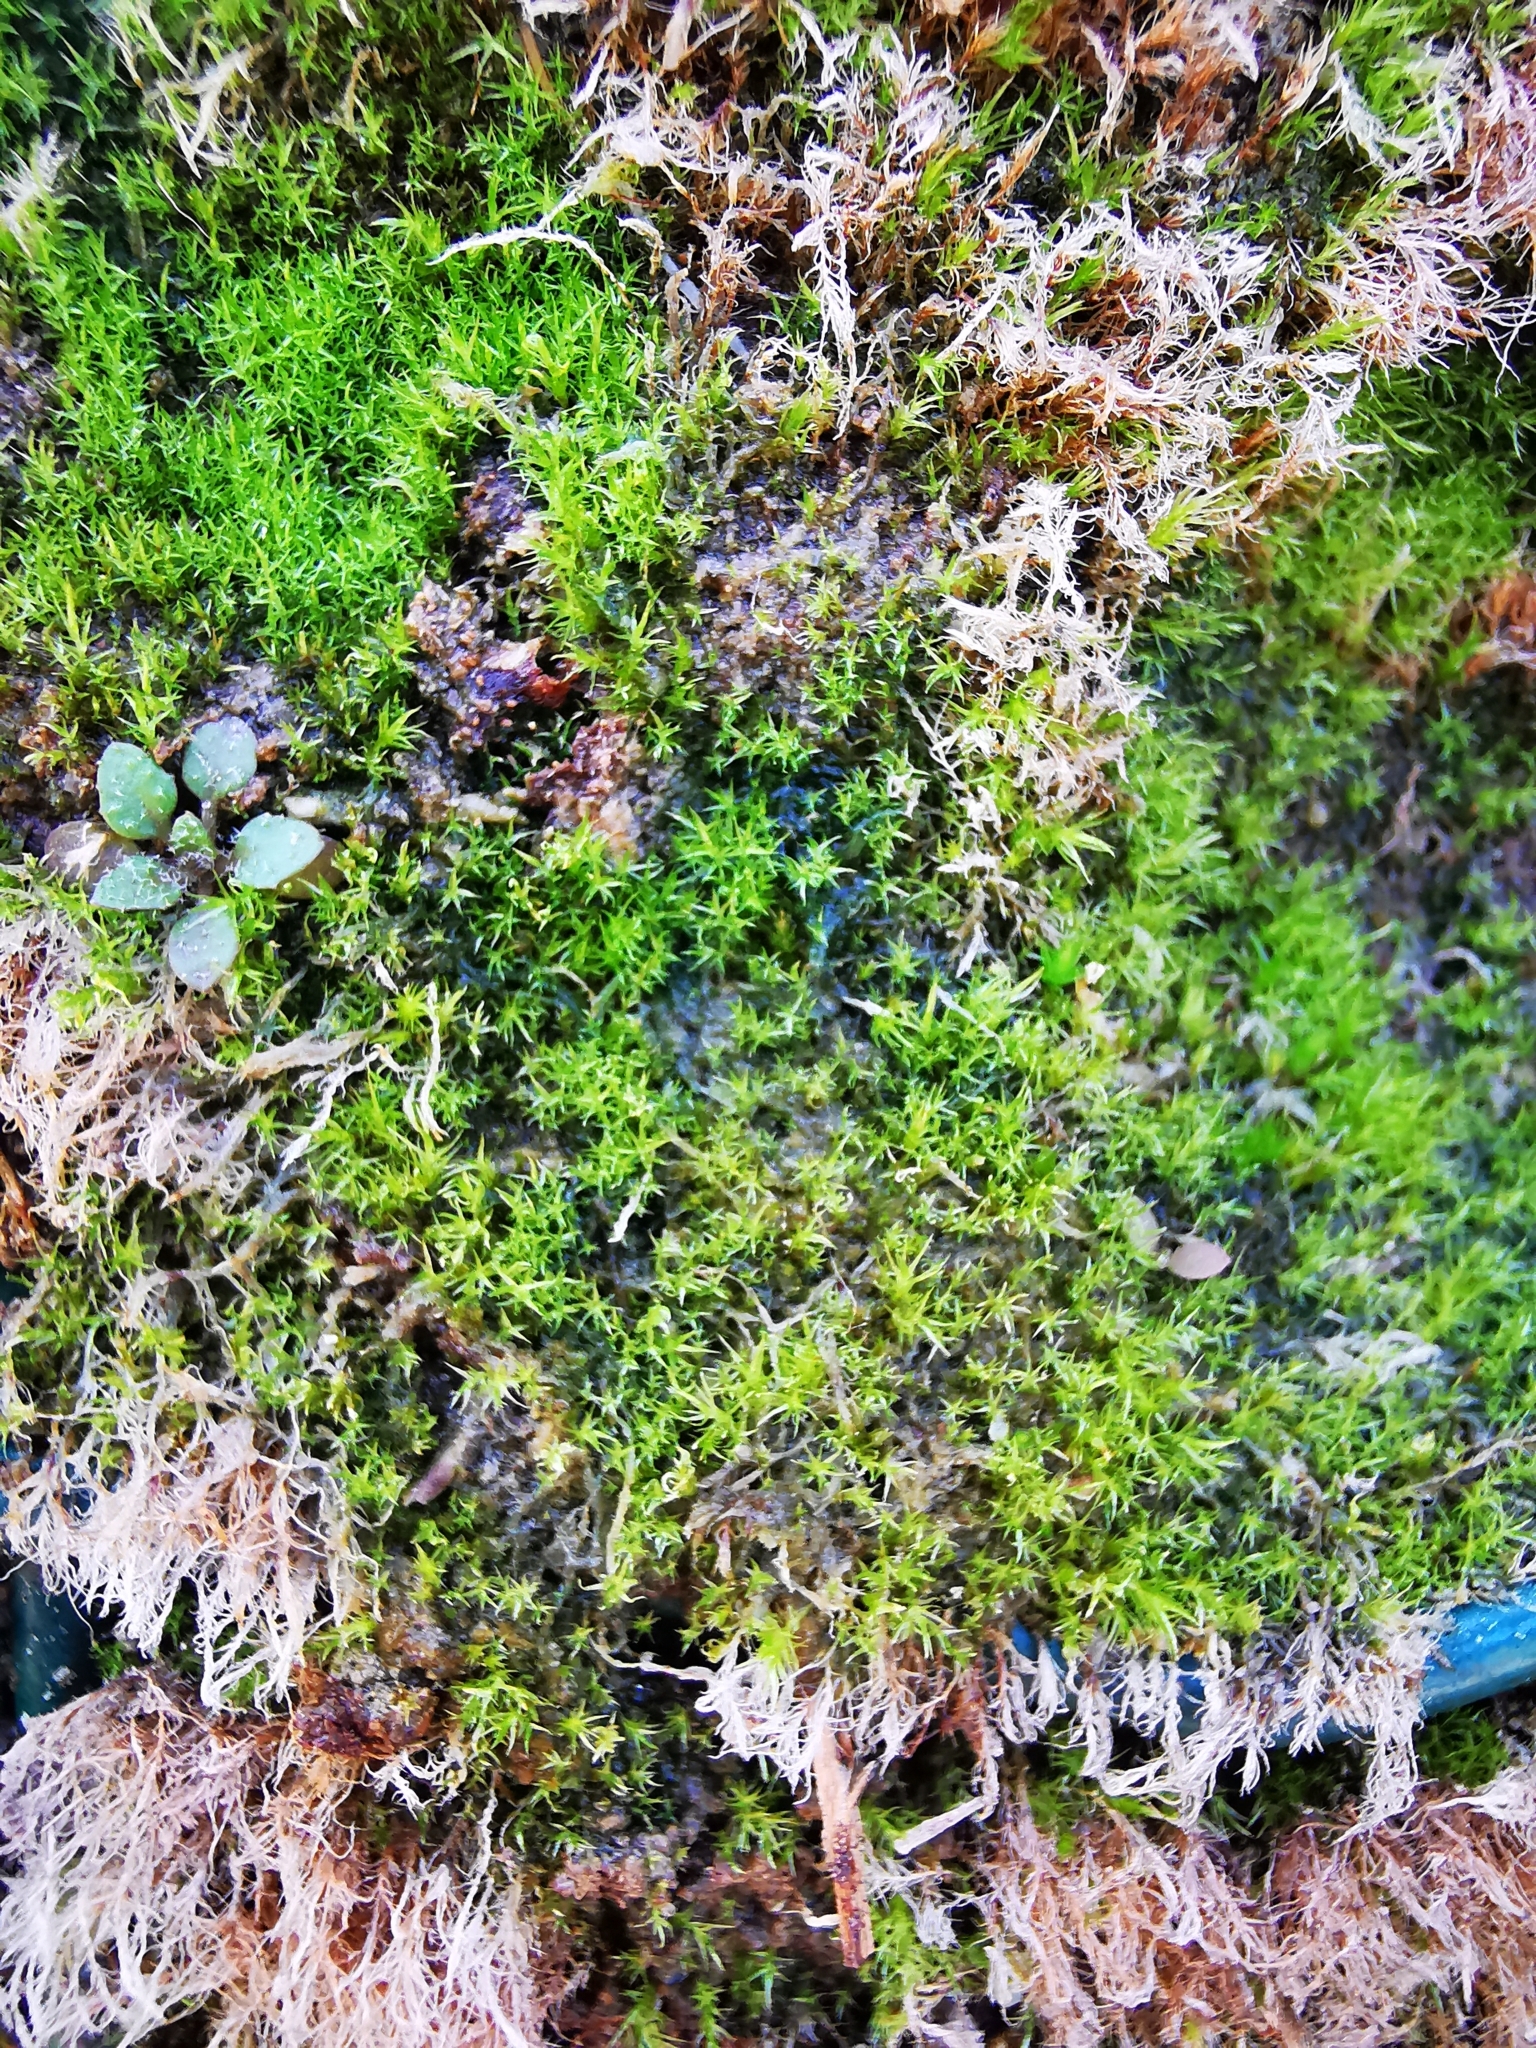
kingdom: Plantae
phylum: Bryophyta
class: Bryopsida
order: Dicranales
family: Ditrichaceae
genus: Ceratodon
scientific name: Ceratodon purpureus
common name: Redshank
